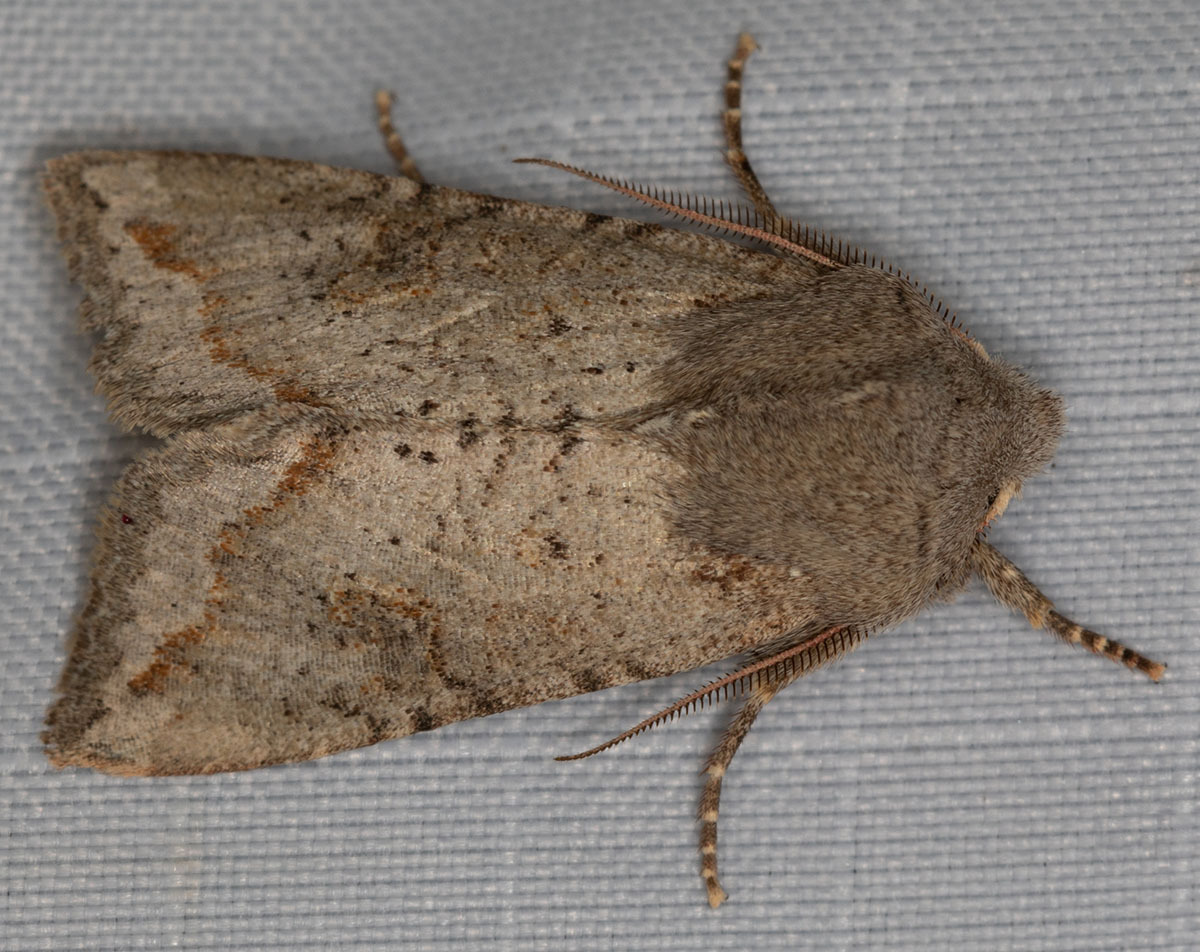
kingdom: Animalia
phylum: Arthropoda
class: Insecta
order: Lepidoptera
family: Noctuidae
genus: Orthosia
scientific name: Orthosia erythrolita
